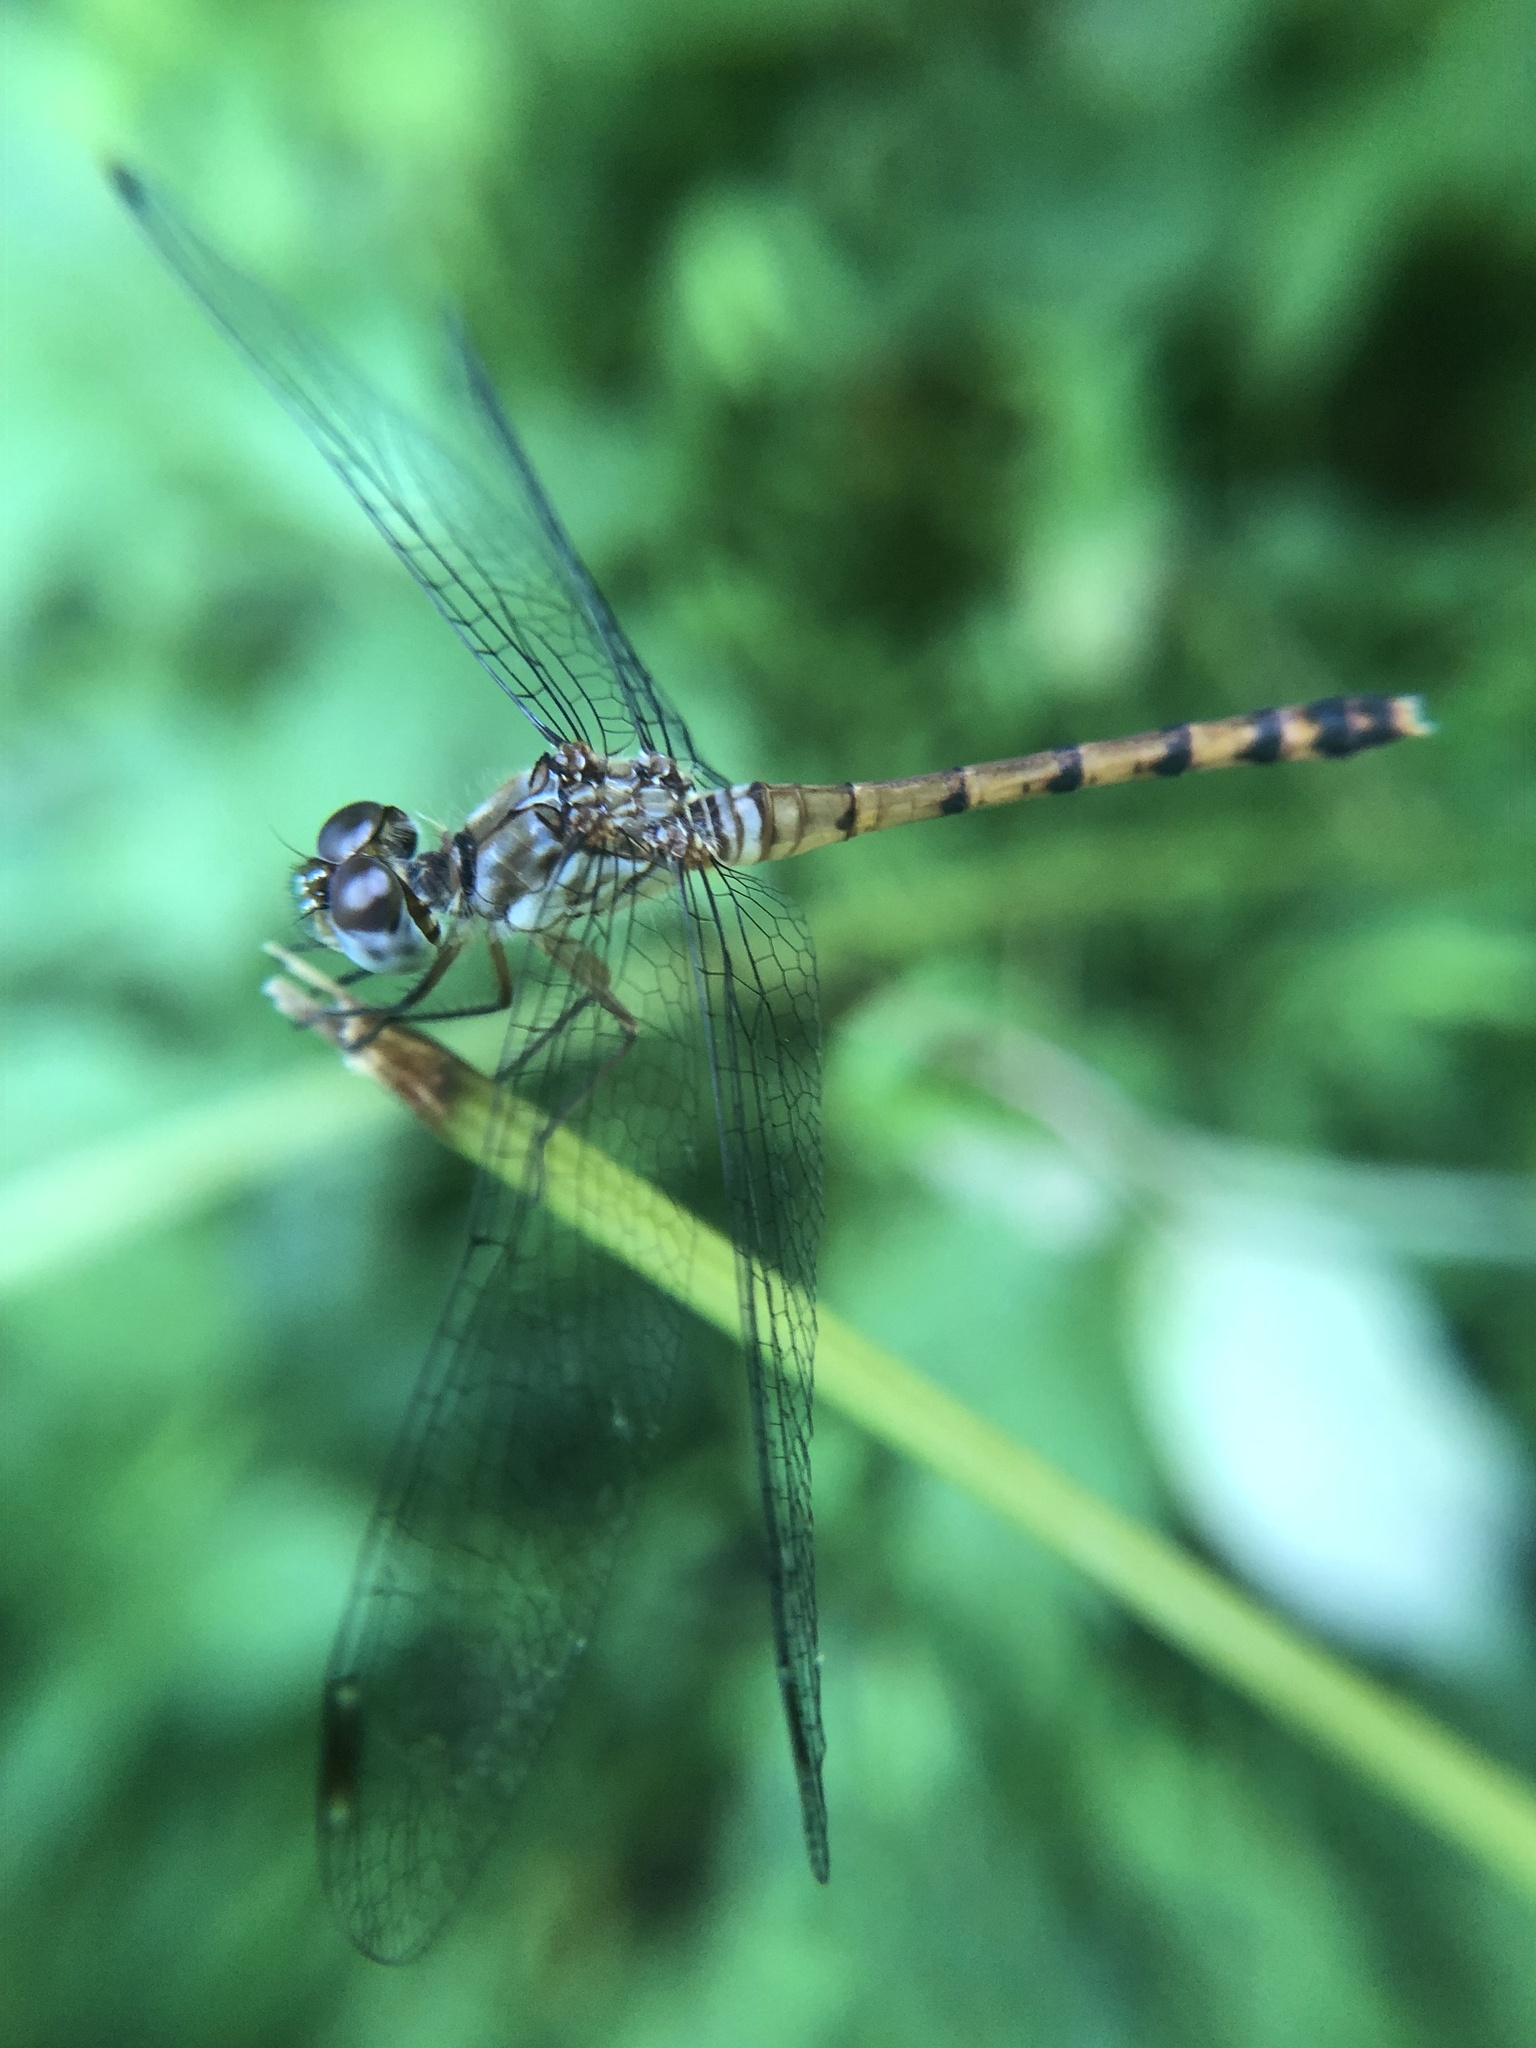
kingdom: Animalia
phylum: Arthropoda
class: Insecta
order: Odonata
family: Libellulidae
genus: Sympetrum
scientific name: Sympetrum ambiguum
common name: Blue-faced meadowhawk
